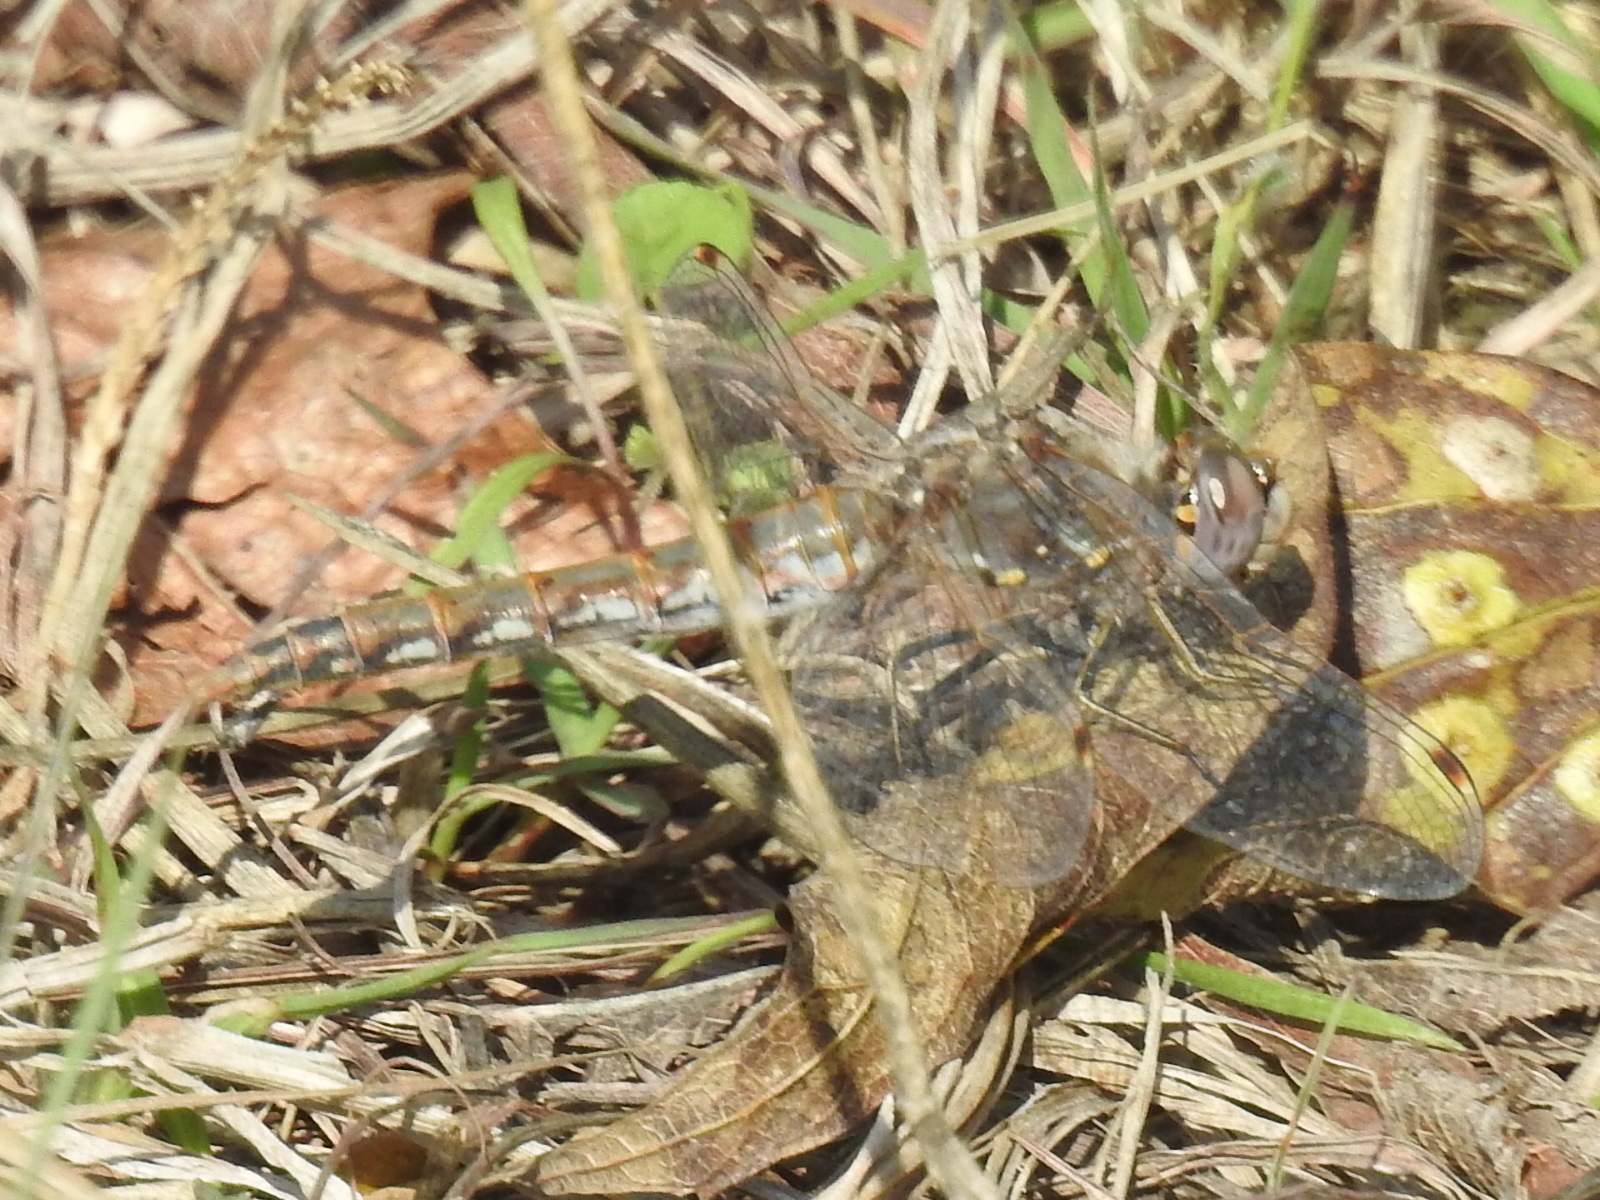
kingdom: Animalia
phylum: Arthropoda
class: Insecta
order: Odonata
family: Libellulidae
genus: Sympetrum
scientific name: Sympetrum corruptum
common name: Variegated meadowhawk
